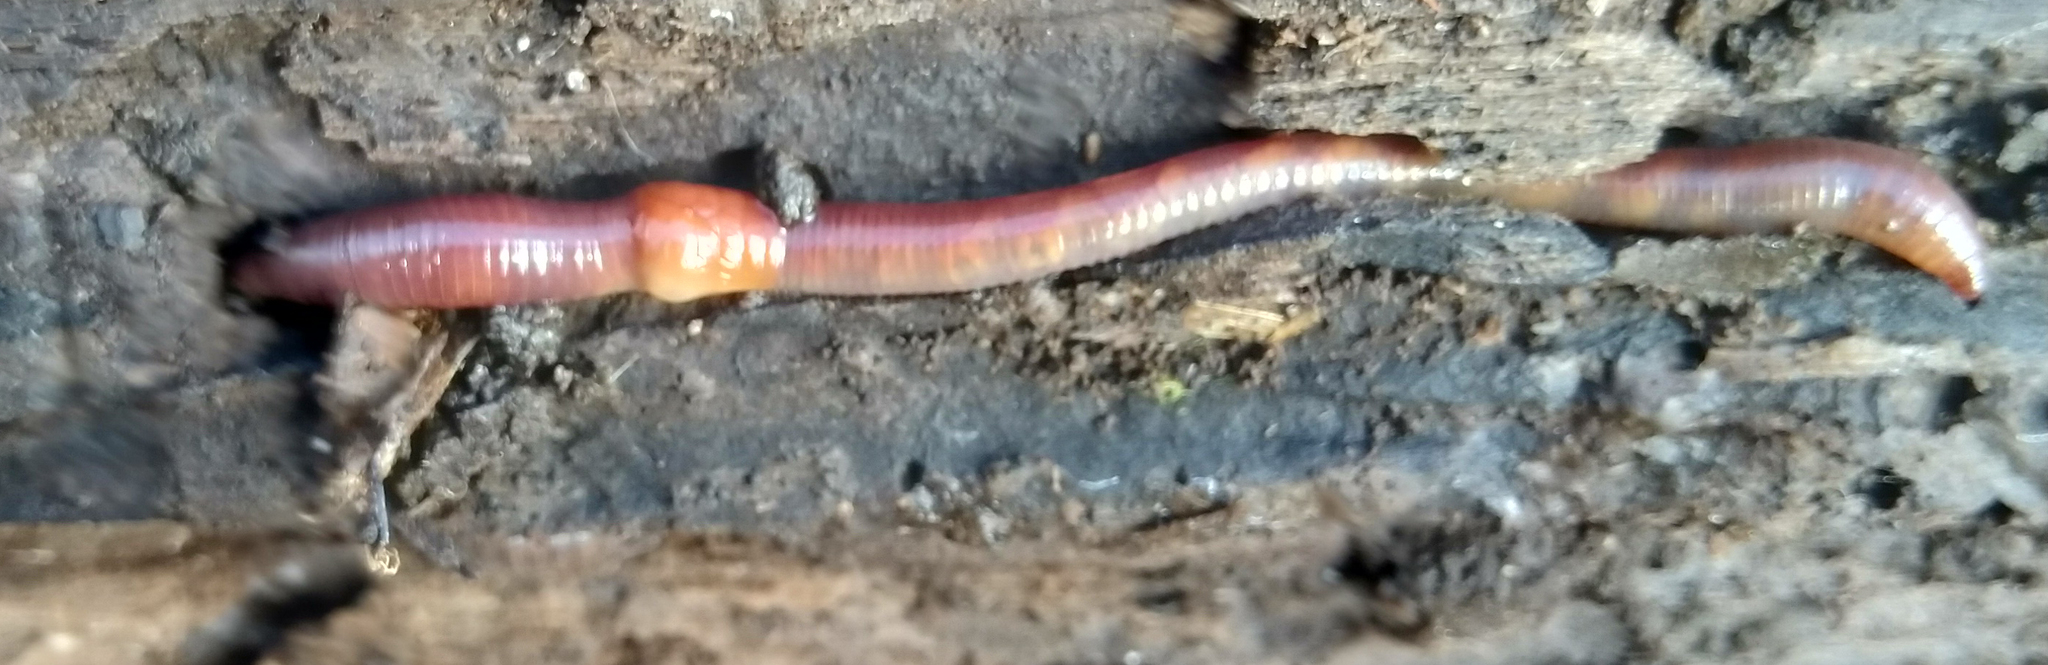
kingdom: Animalia
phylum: Annelida
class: Clitellata
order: Crassiclitellata
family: Lumbricidae
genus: Lumbricus
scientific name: Lumbricus terrestris
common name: Common earthworm
